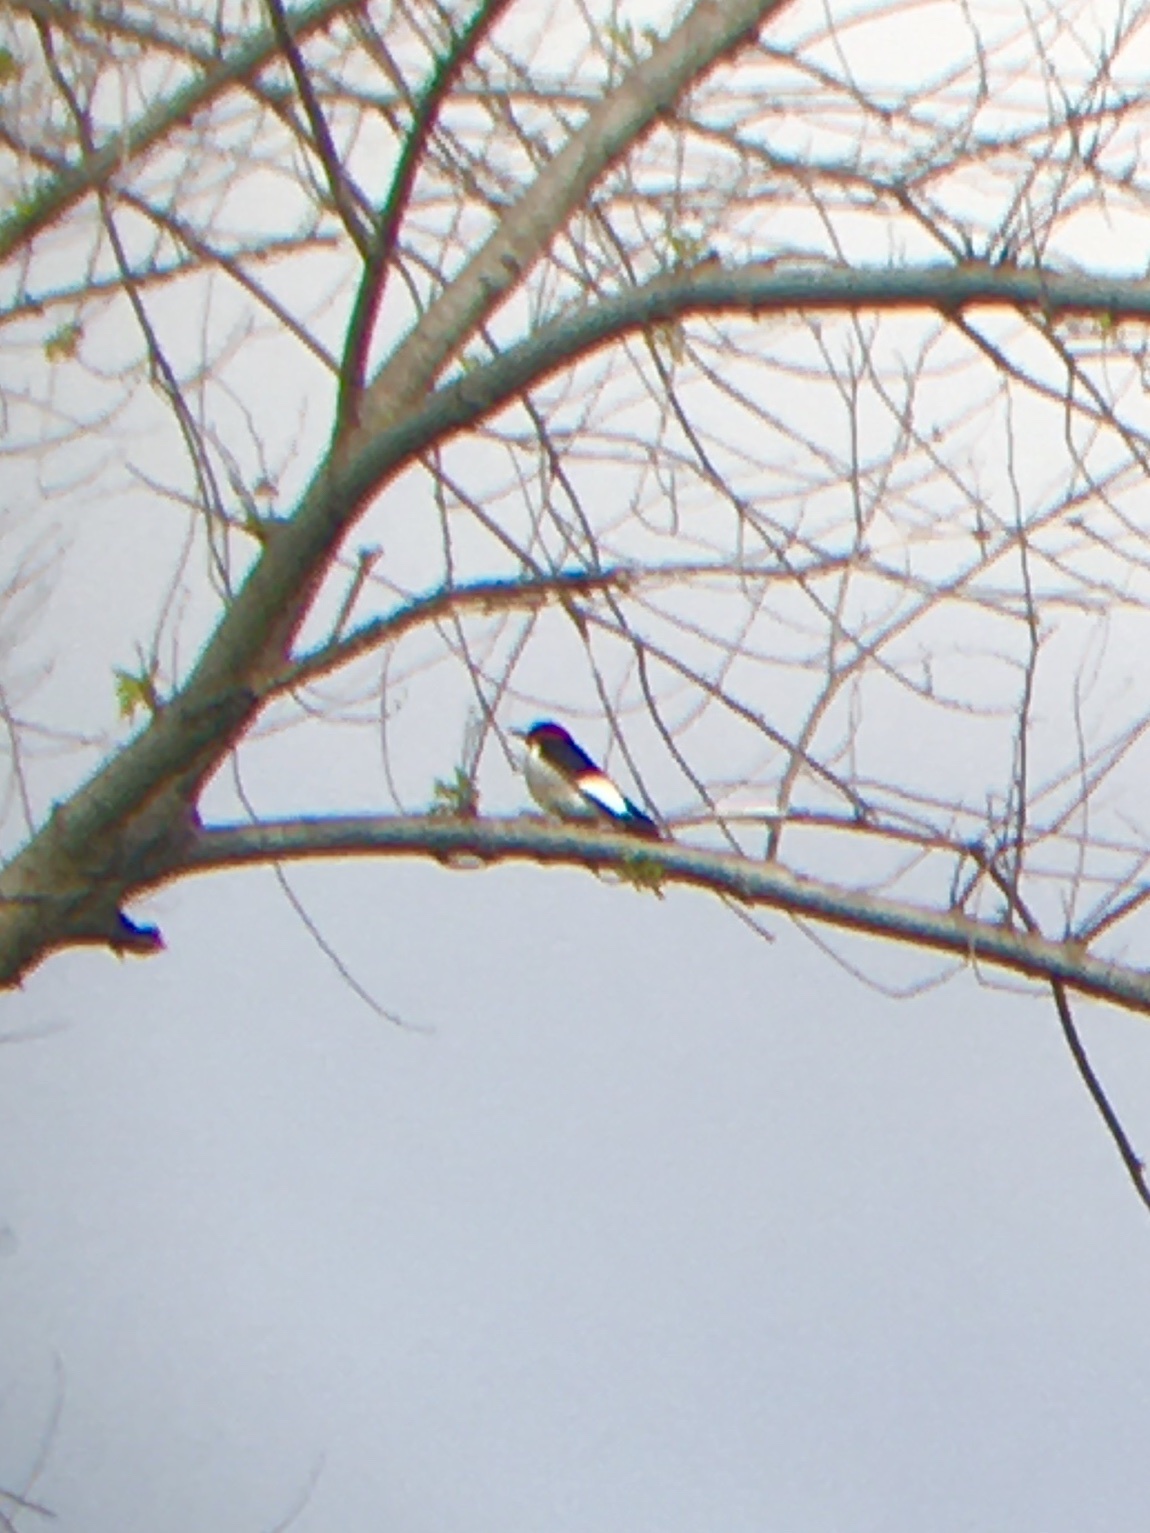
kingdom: Animalia
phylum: Chordata
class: Aves
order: Piciformes
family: Picidae
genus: Melanerpes
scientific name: Melanerpes erythrocephalus
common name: Red-headed woodpecker
